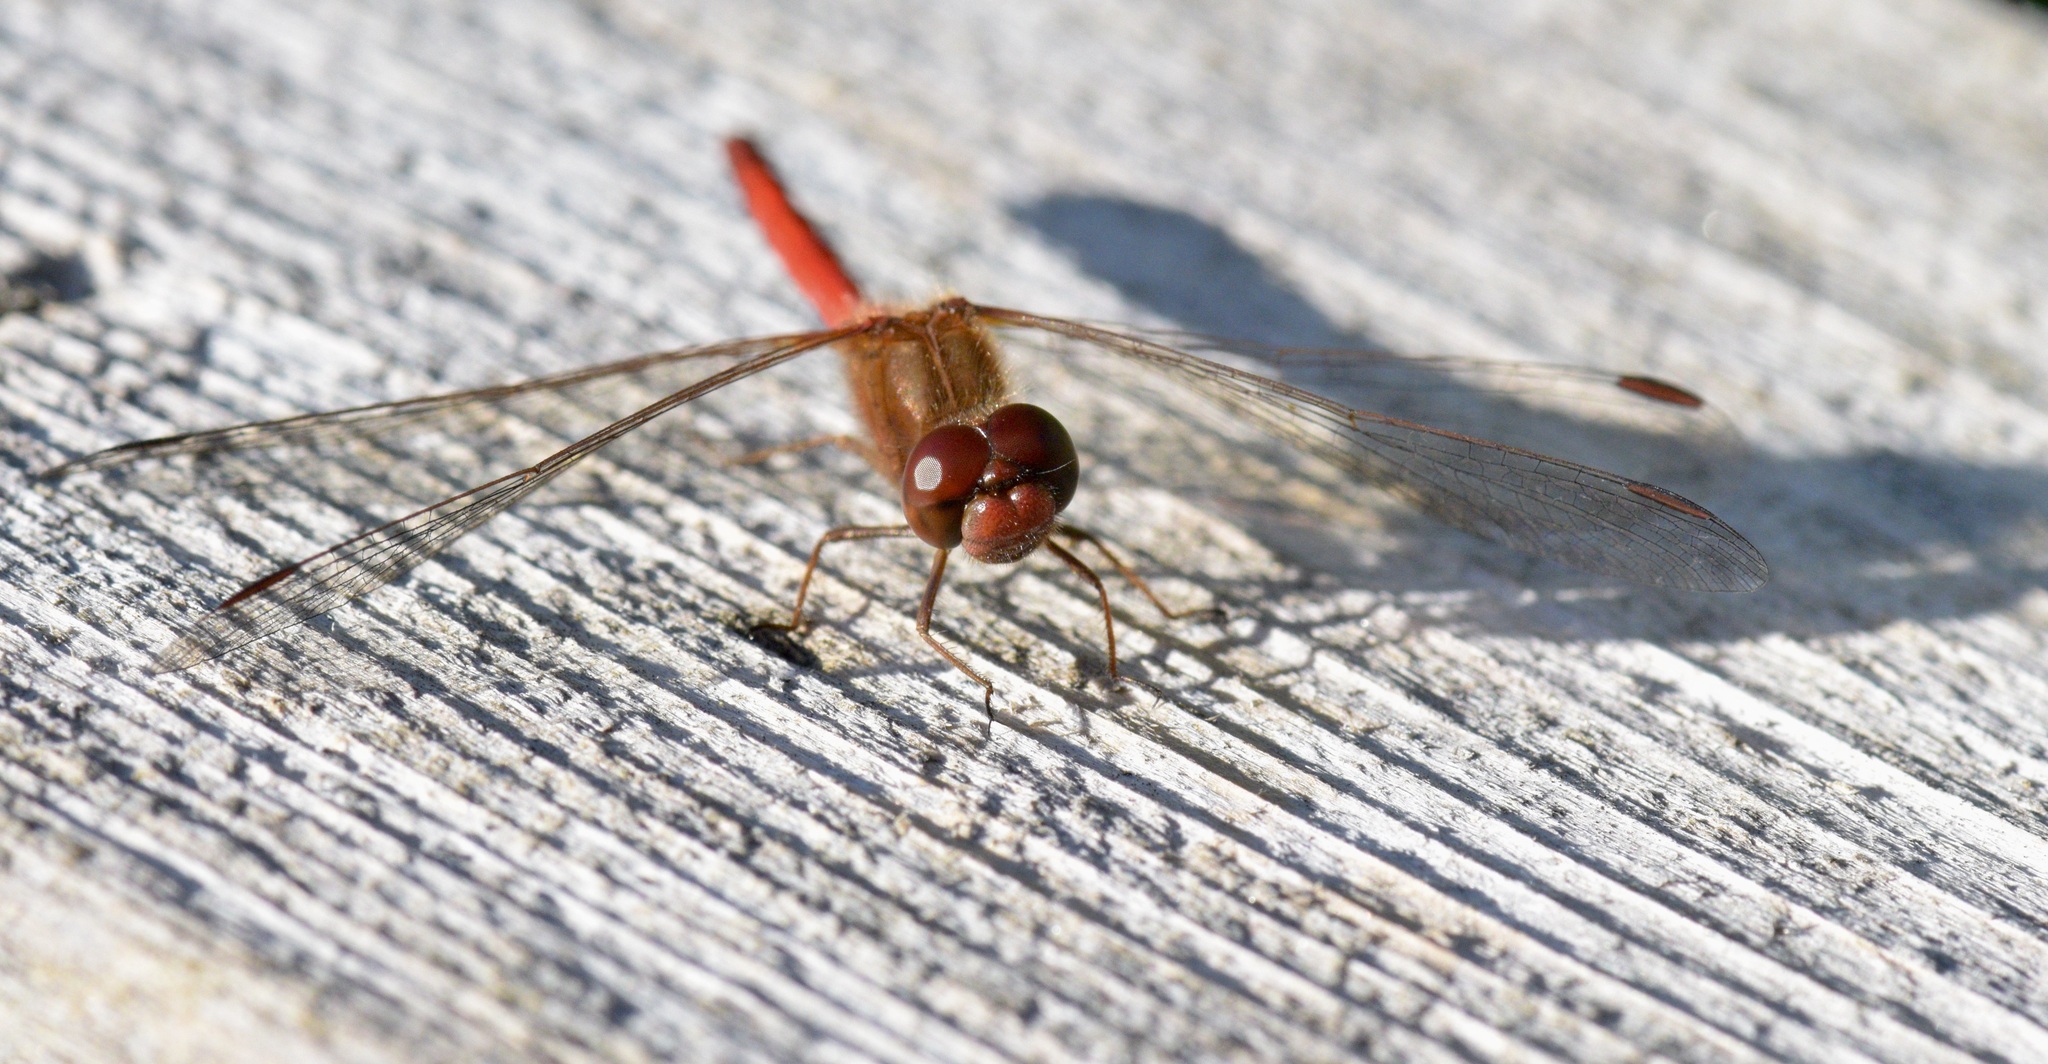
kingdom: Animalia
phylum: Arthropoda
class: Insecta
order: Odonata
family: Libellulidae
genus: Sympetrum
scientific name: Sympetrum vicinum
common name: Autumn meadowhawk
